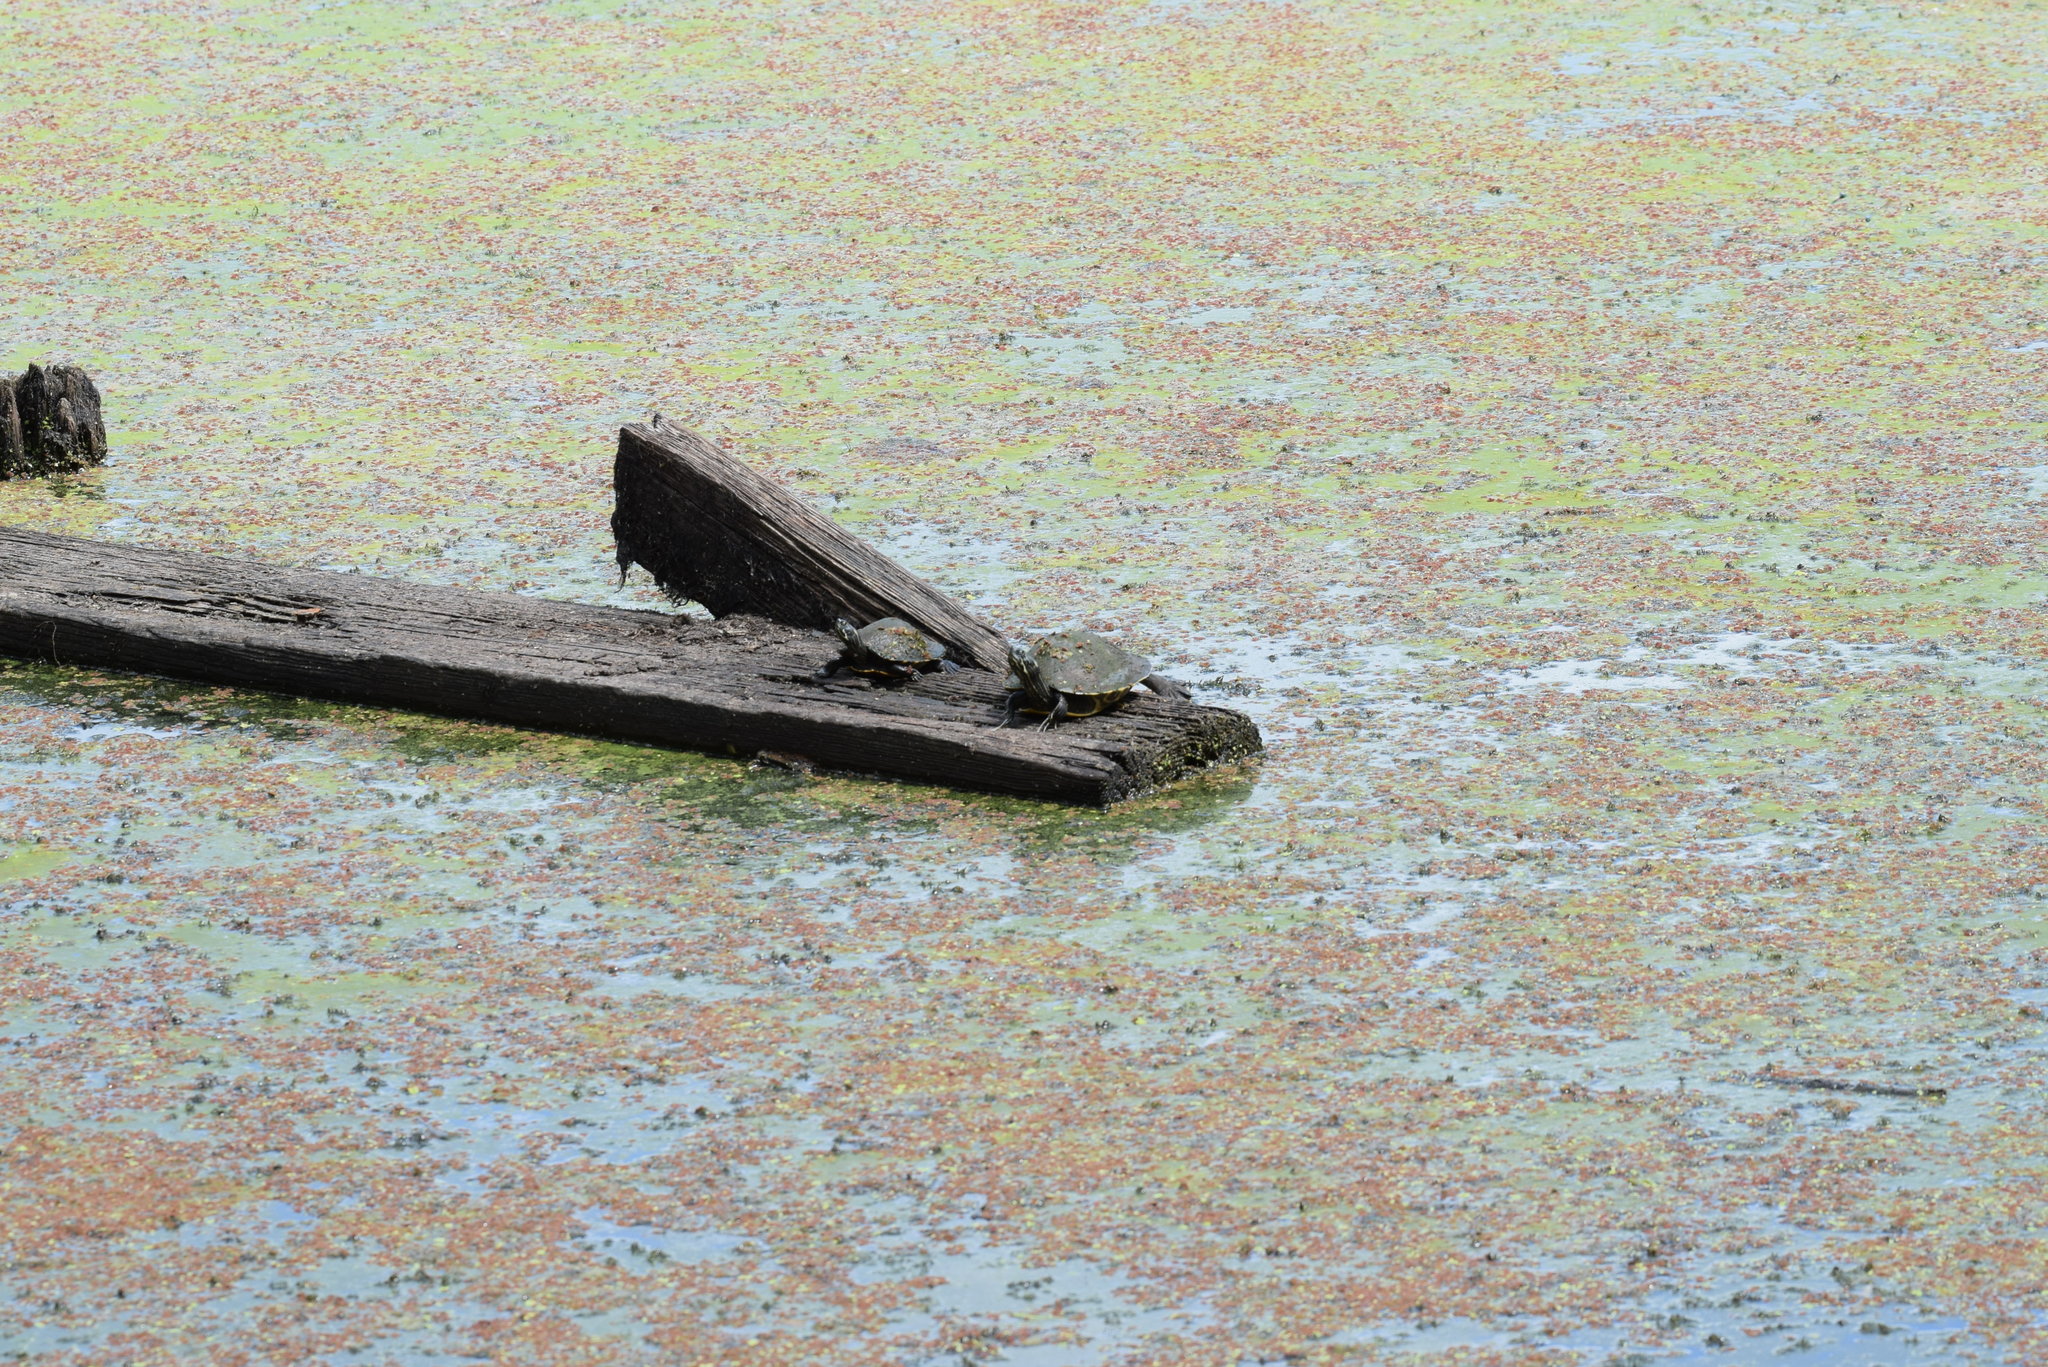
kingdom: Animalia
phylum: Chordata
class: Testudines
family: Emydidae
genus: Pseudemys
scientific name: Pseudemys concinna
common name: Eastern river cooter
